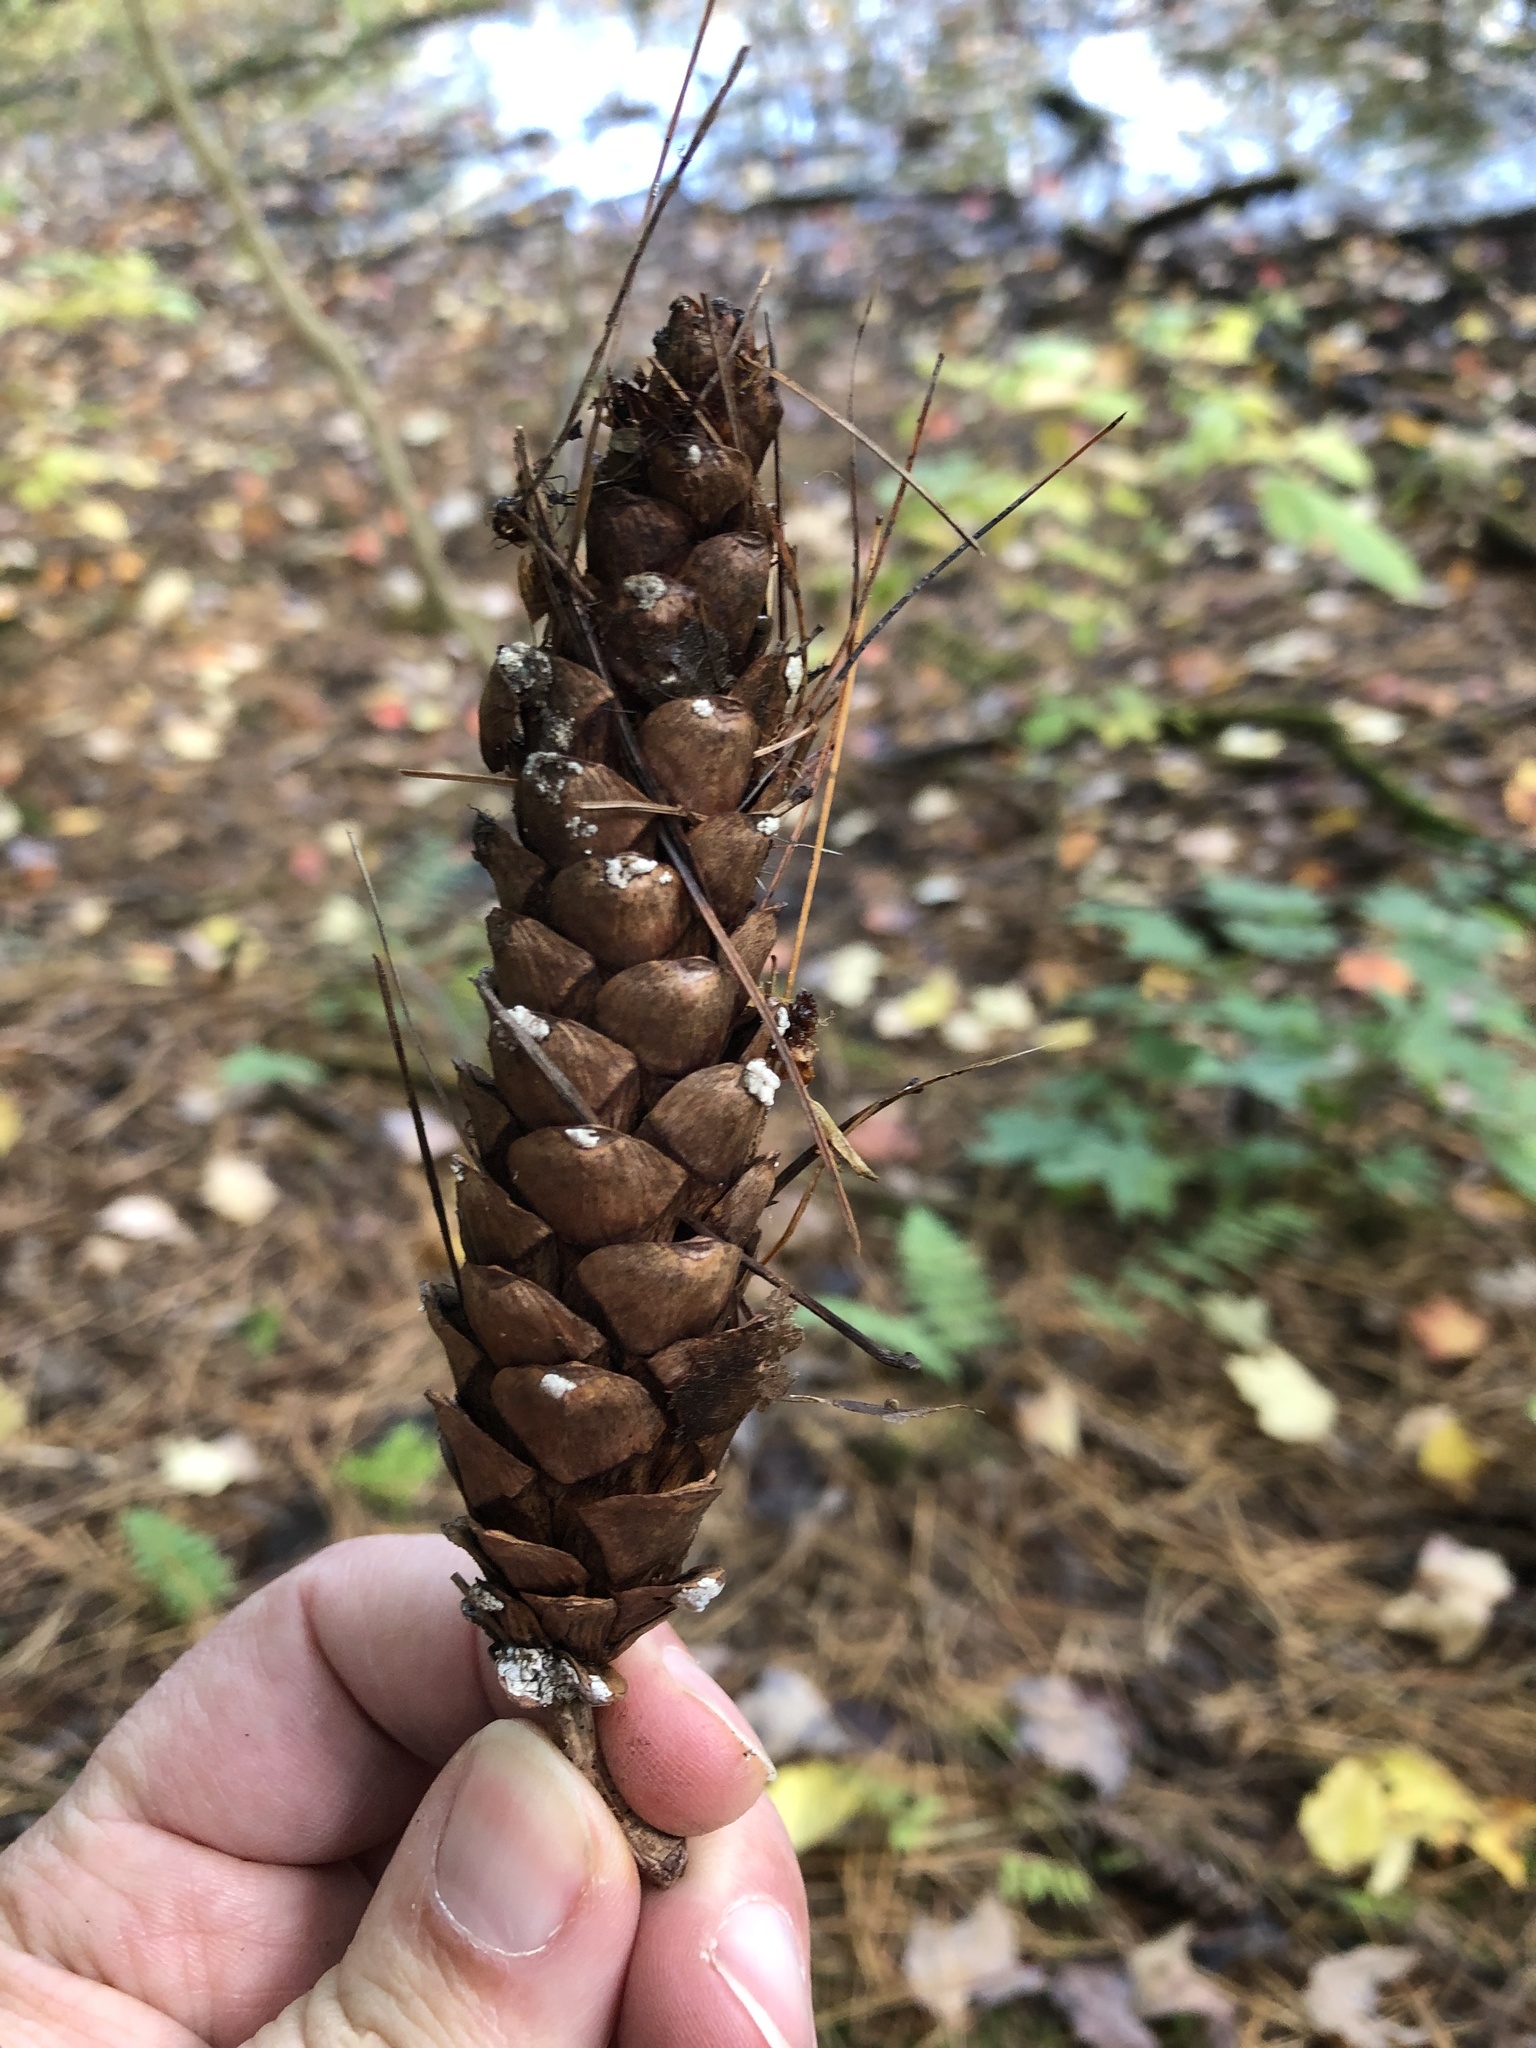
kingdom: Plantae
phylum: Tracheophyta
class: Pinopsida
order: Pinales
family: Pinaceae
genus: Pinus
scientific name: Pinus strobus
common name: Weymouth pine
